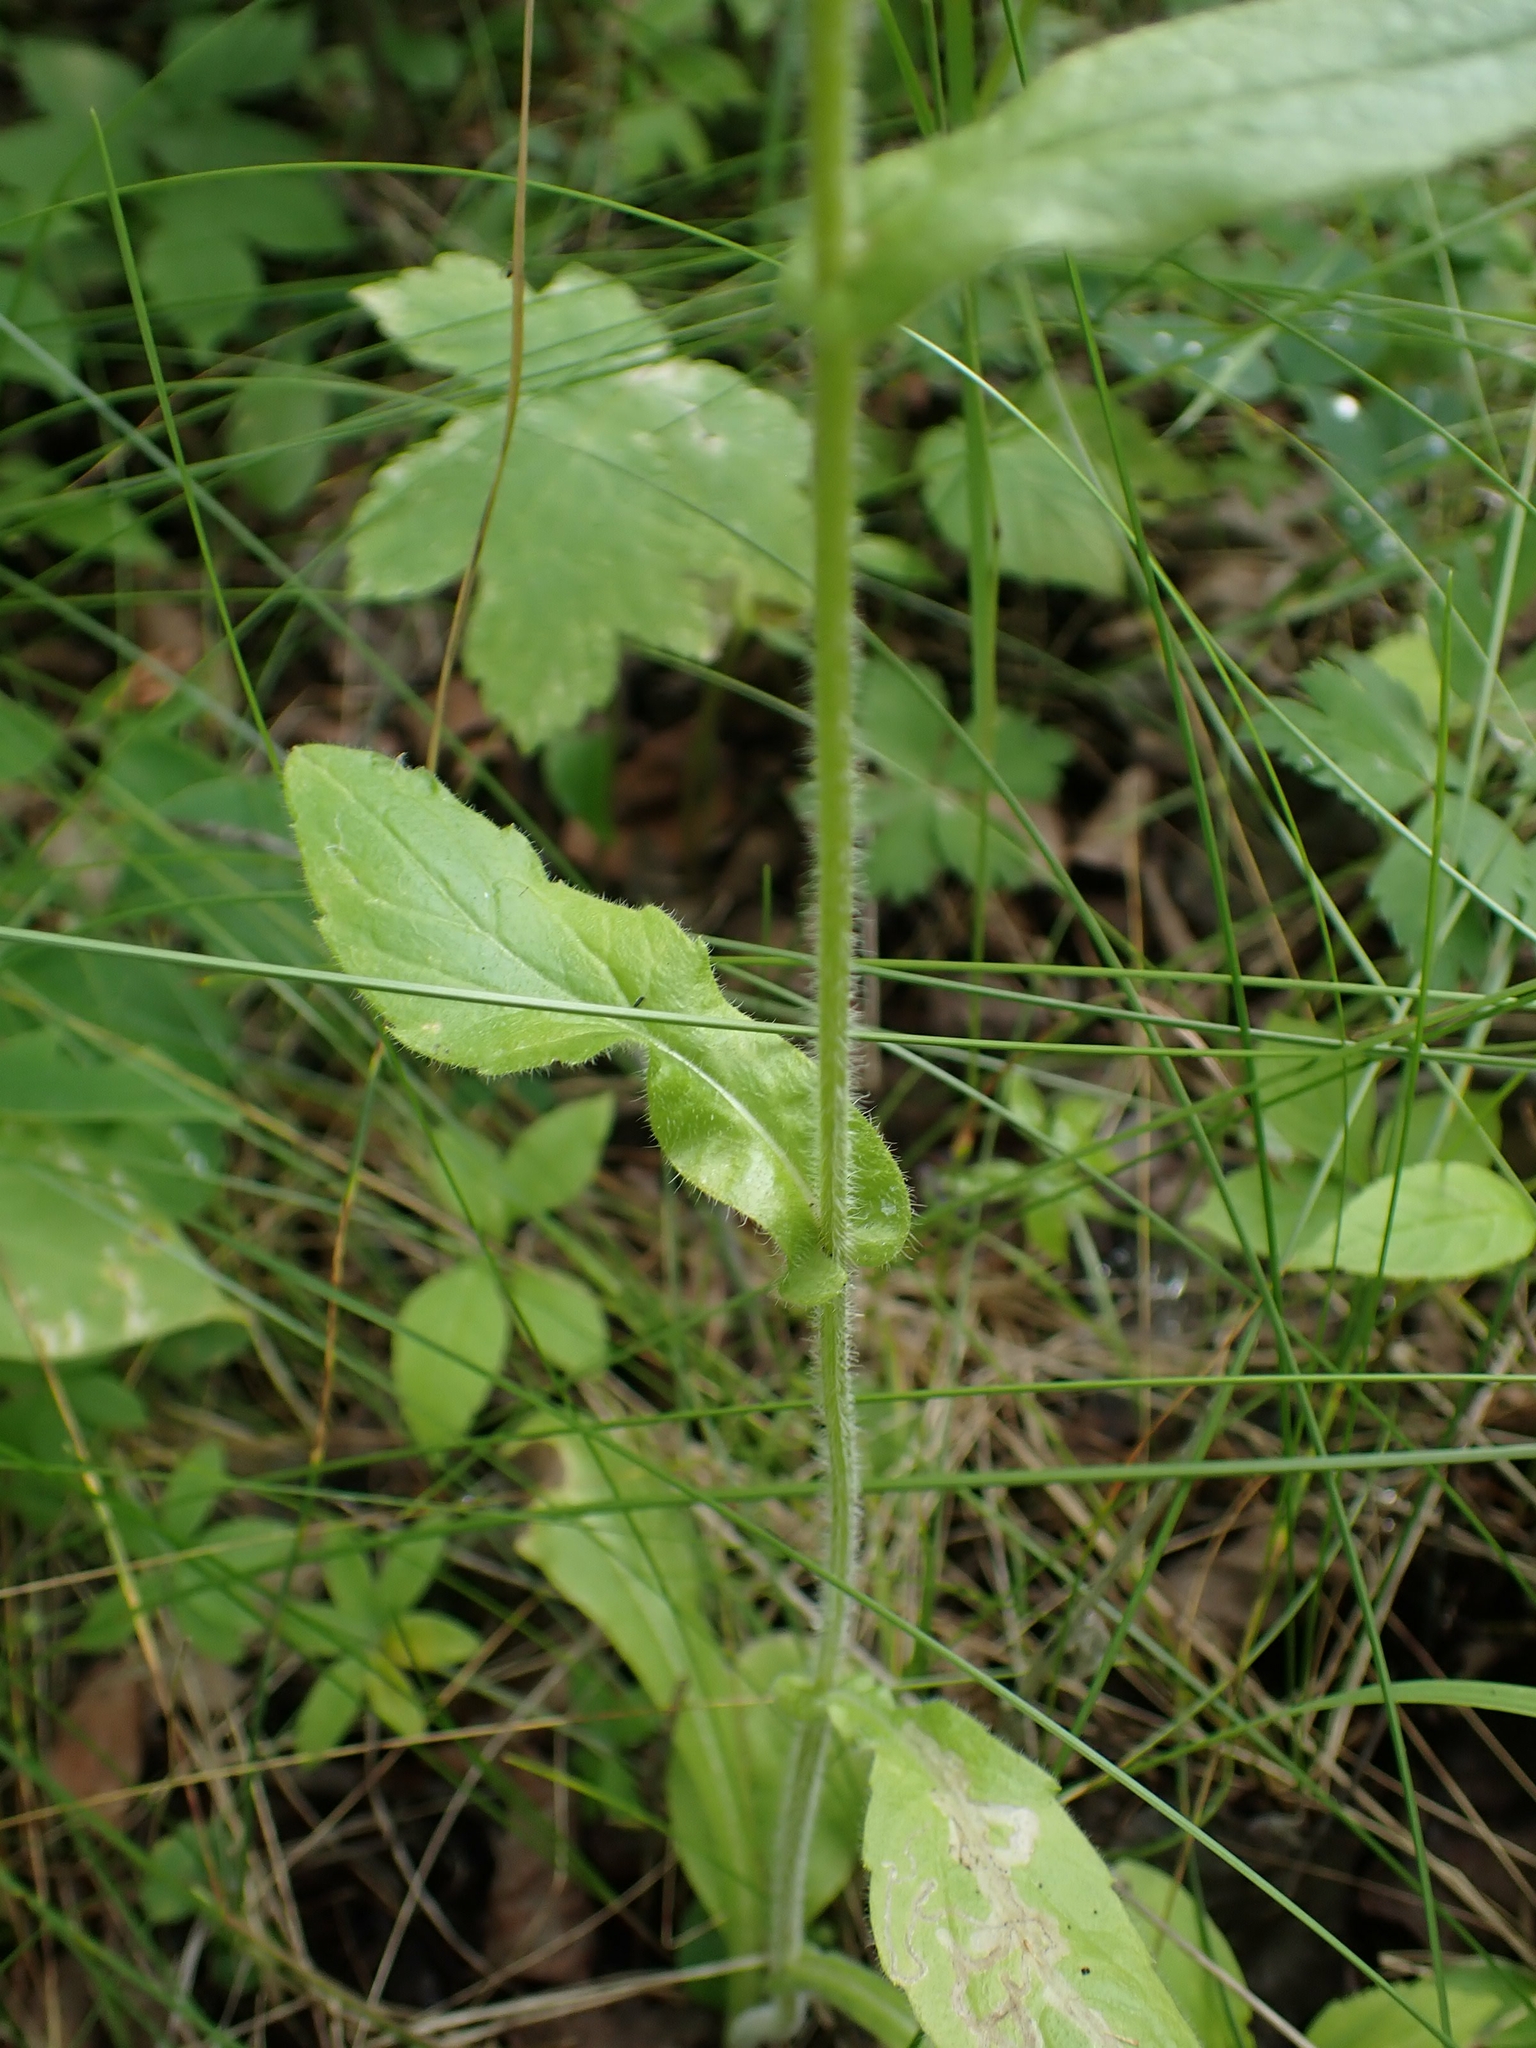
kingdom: Plantae
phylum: Tracheophyta
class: Magnoliopsida
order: Asterales
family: Asteraceae
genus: Erigeron
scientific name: Erigeron philadelphicus
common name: Robin's-plantain
